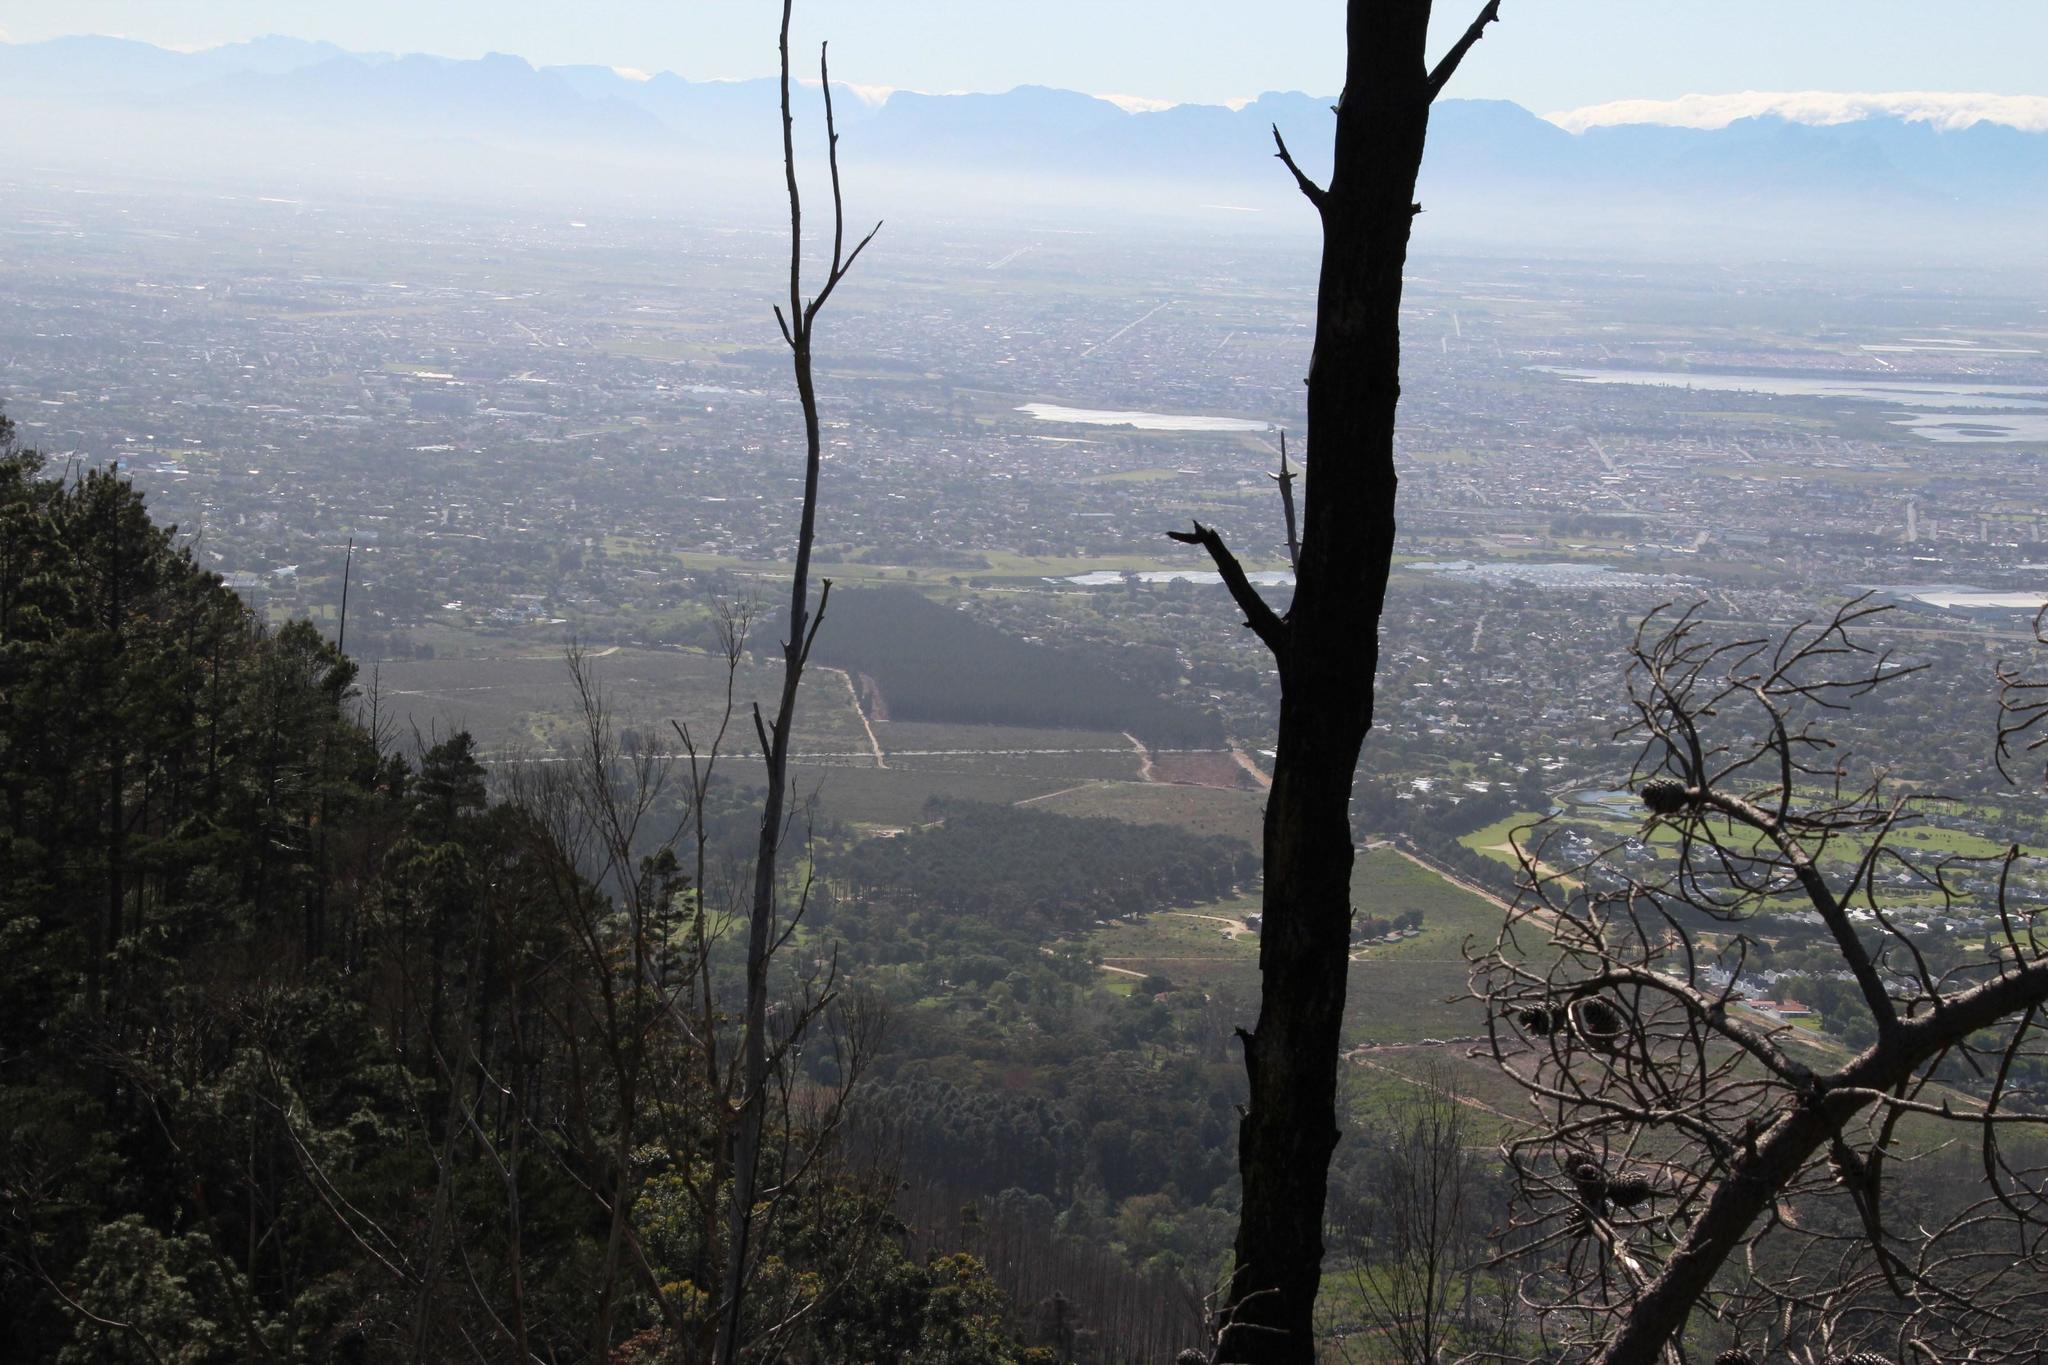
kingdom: Plantae
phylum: Tracheophyta
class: Pinopsida
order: Pinales
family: Pinaceae
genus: Pinus
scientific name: Pinus radiata
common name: Monterey pine
